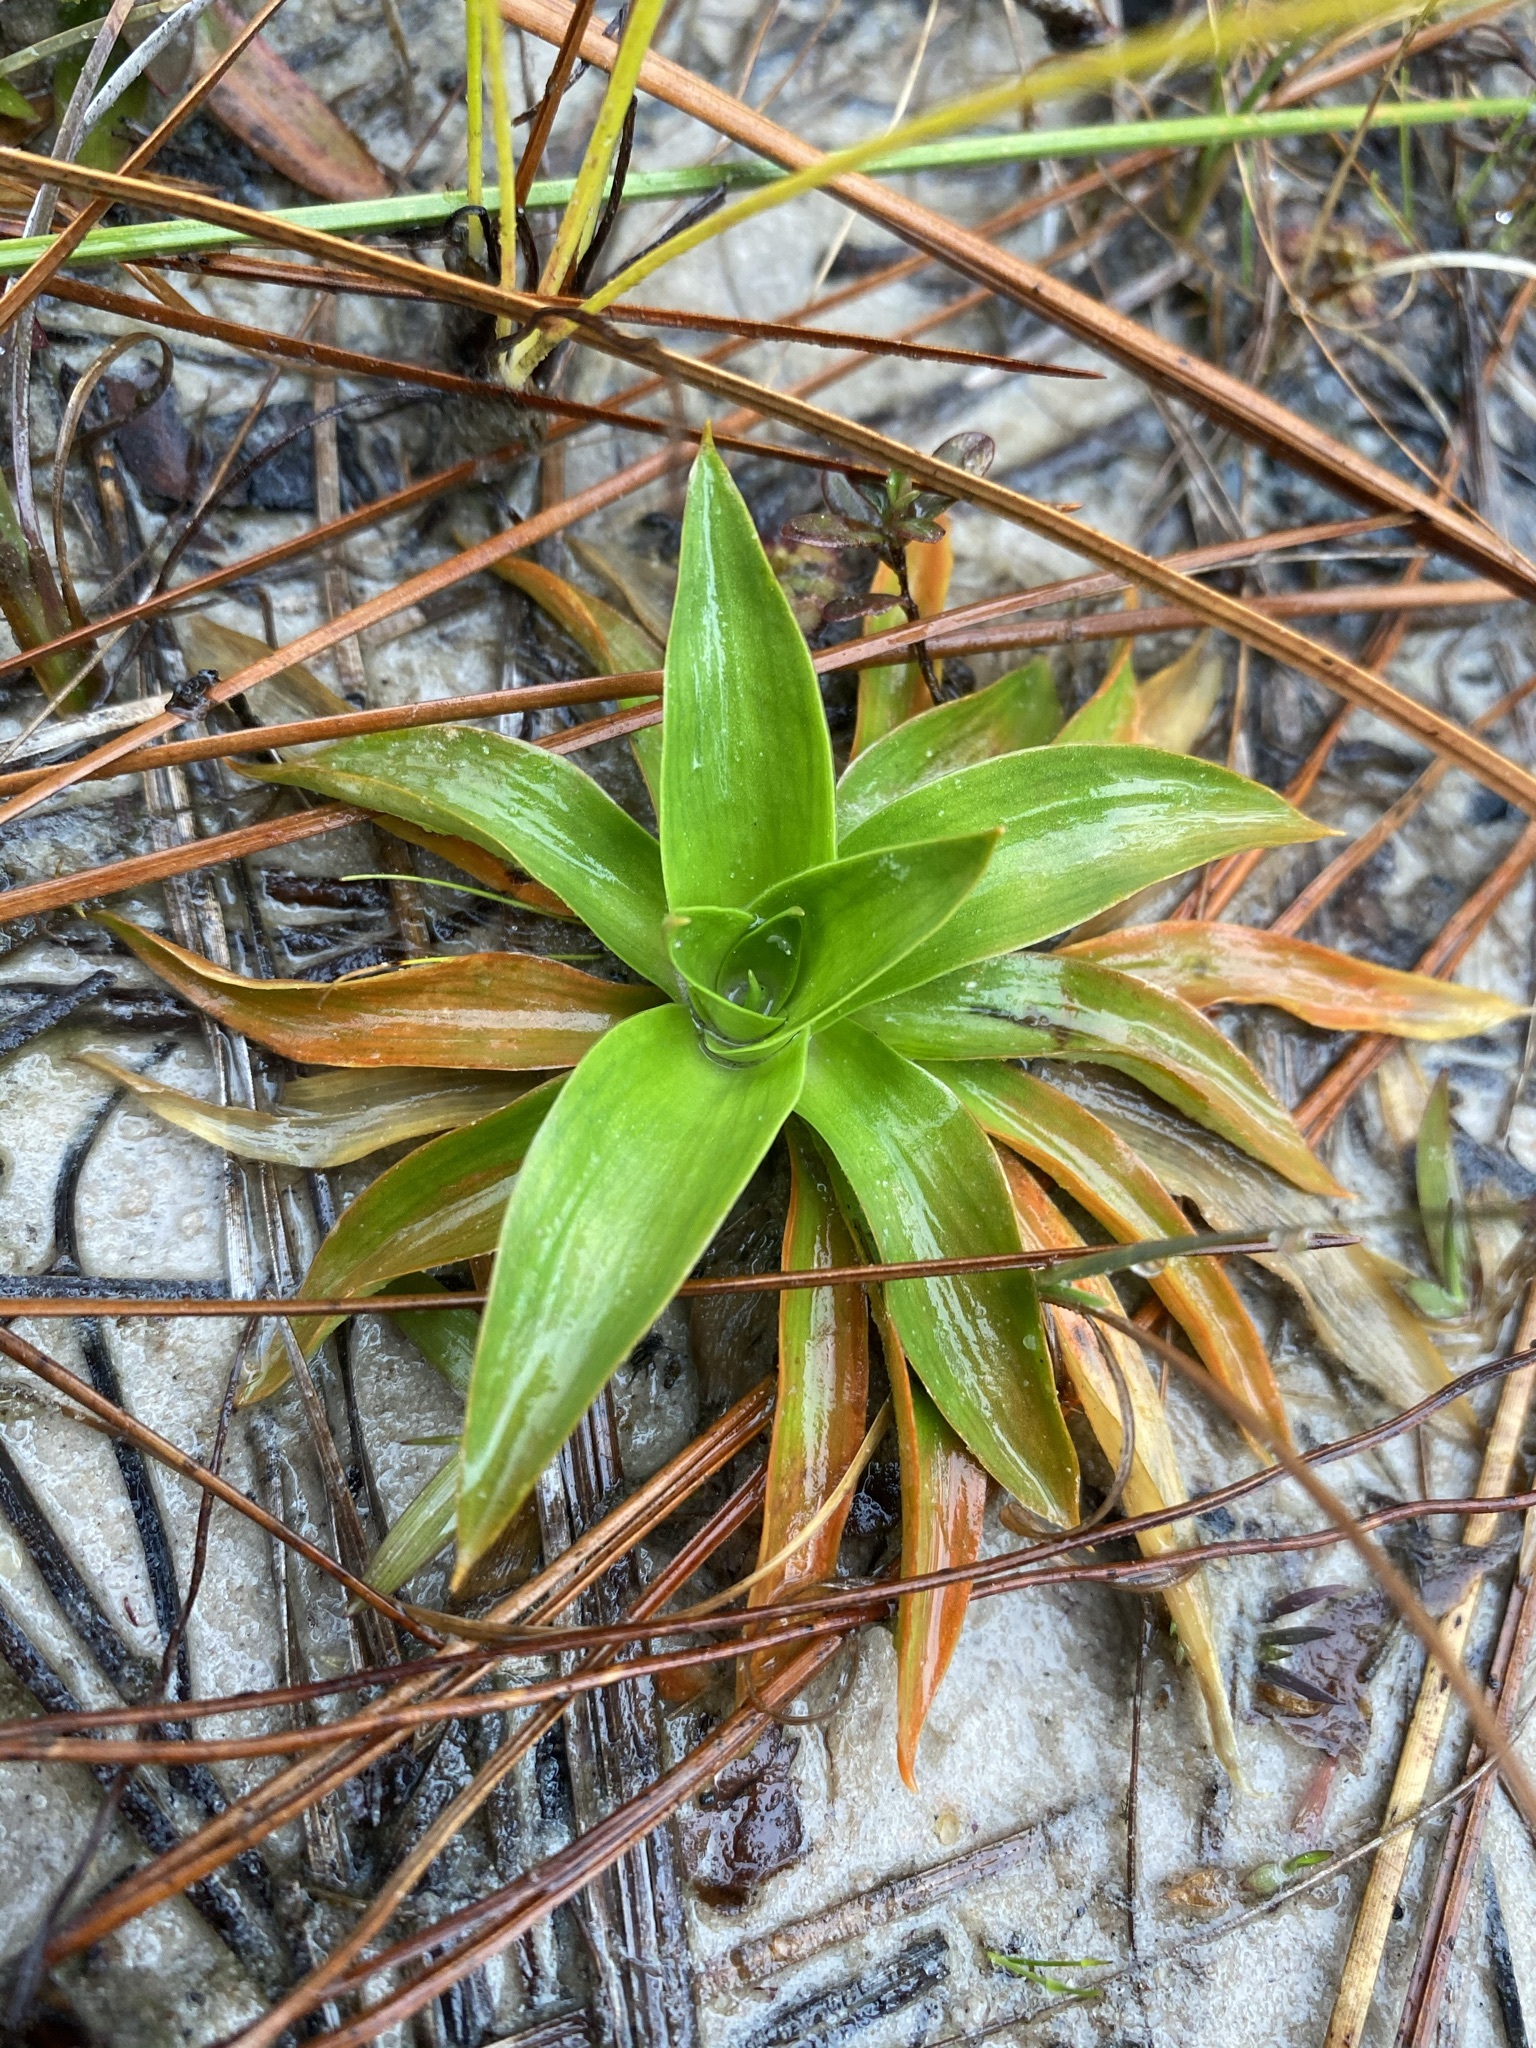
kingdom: Plantae
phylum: Tracheophyta
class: Liliopsida
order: Dioscoreales
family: Nartheciaceae
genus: Aletris
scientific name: Aletris aurea
